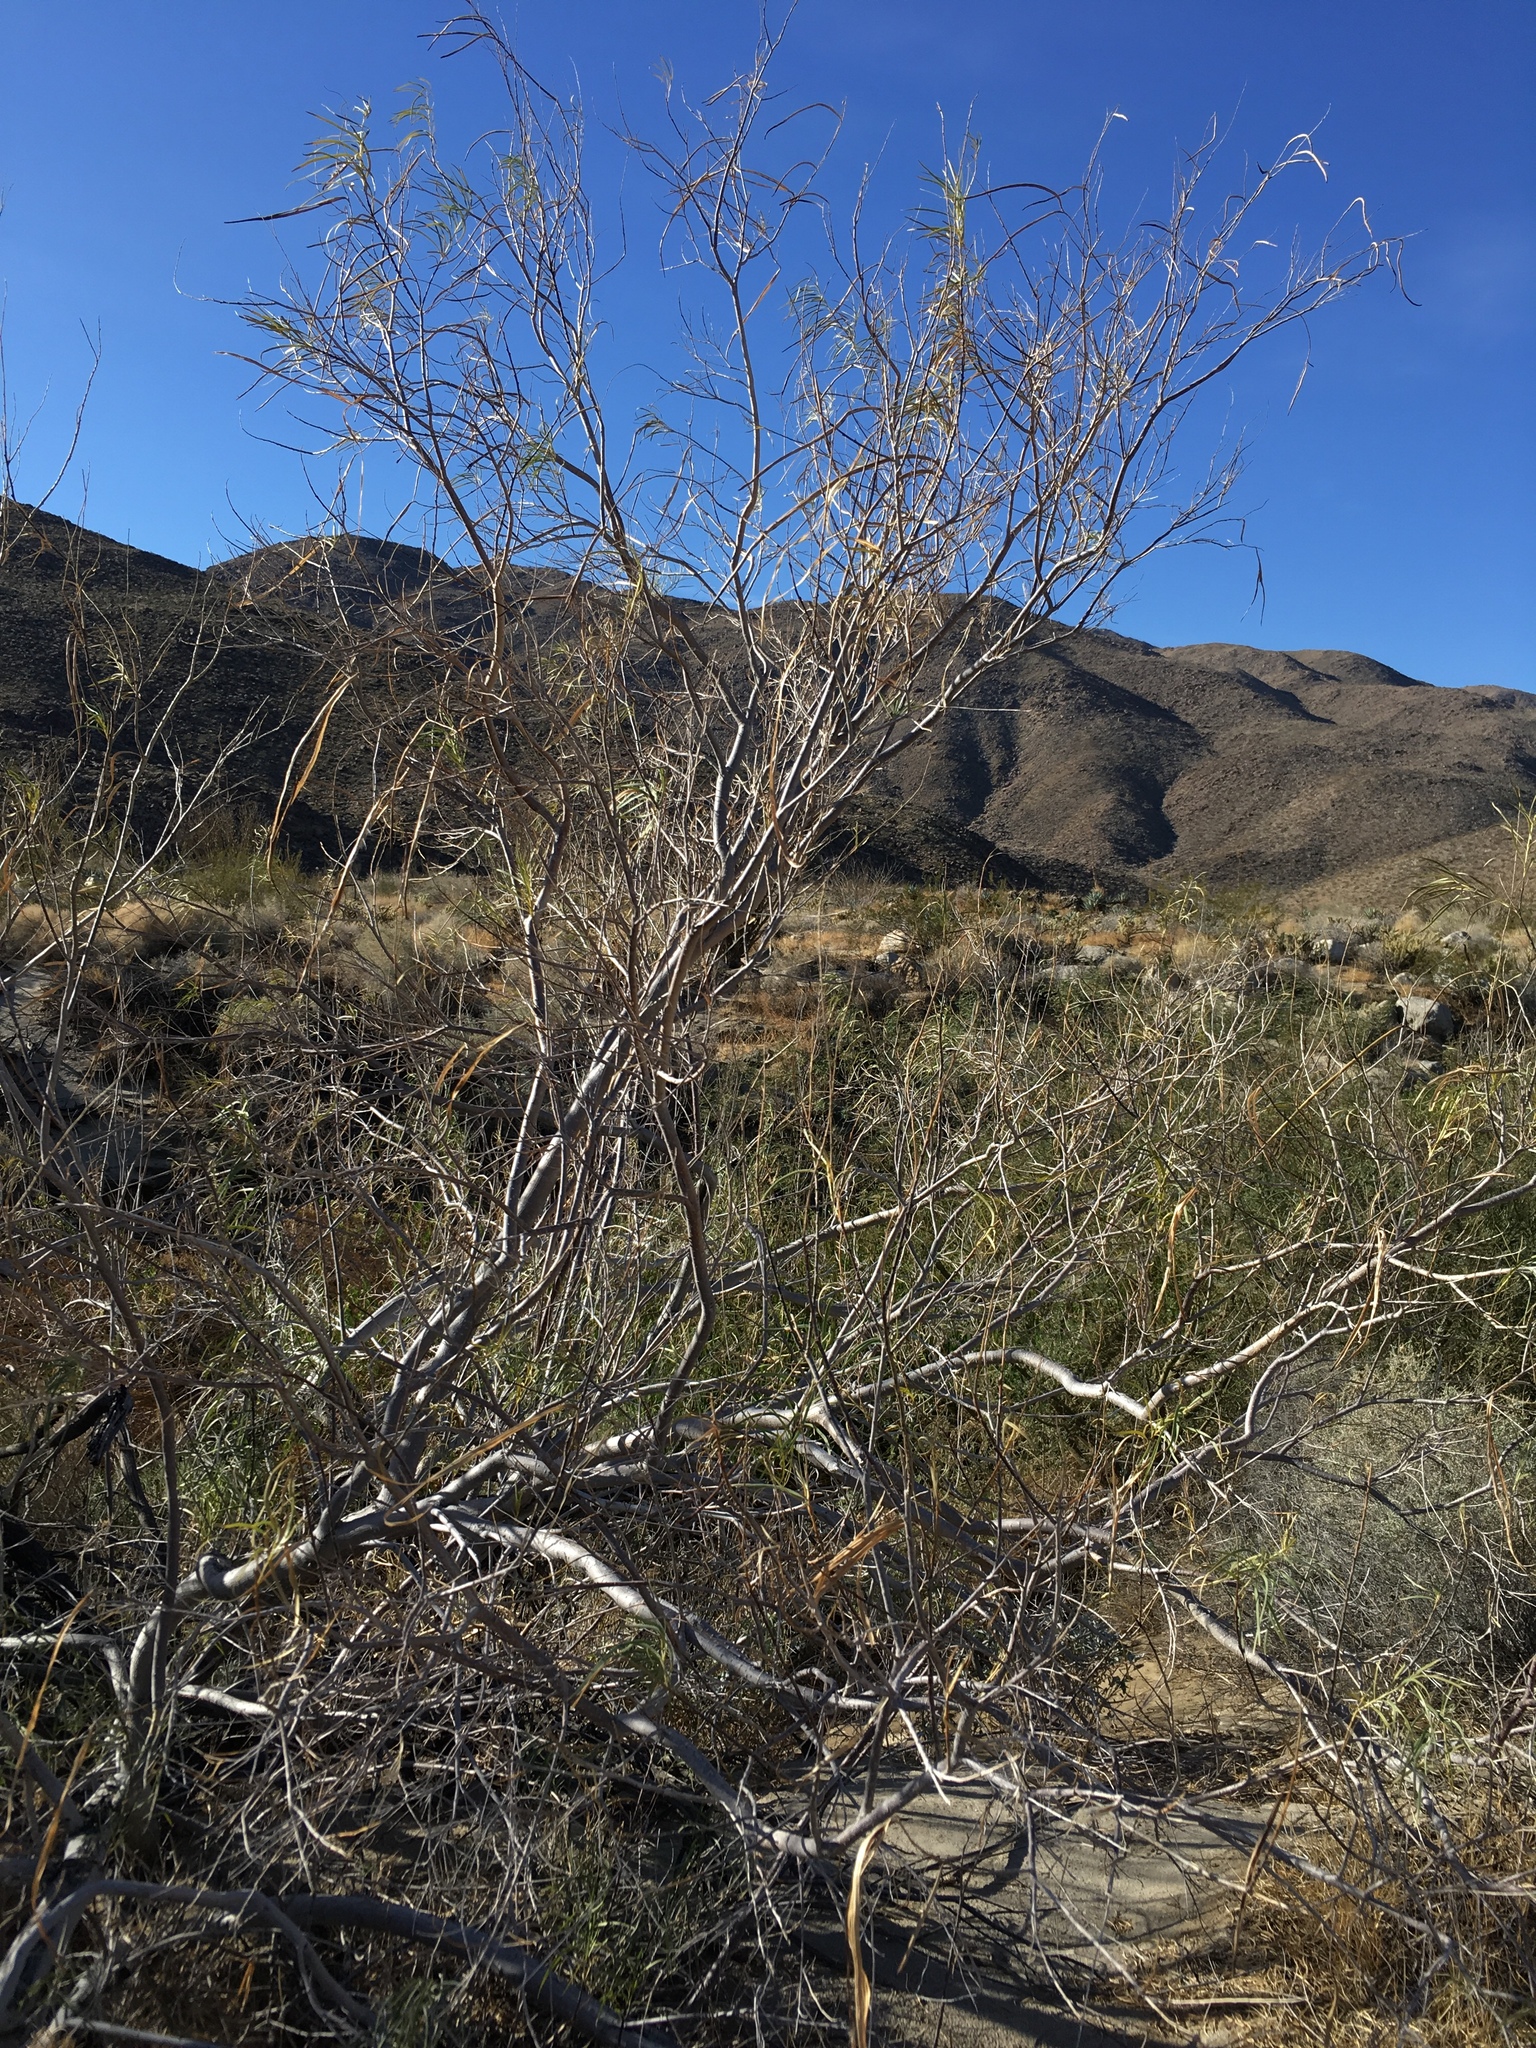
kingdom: Plantae
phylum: Tracheophyta
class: Magnoliopsida
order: Lamiales
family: Bignoniaceae
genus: Chilopsis
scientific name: Chilopsis linearis
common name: Desert-willow
